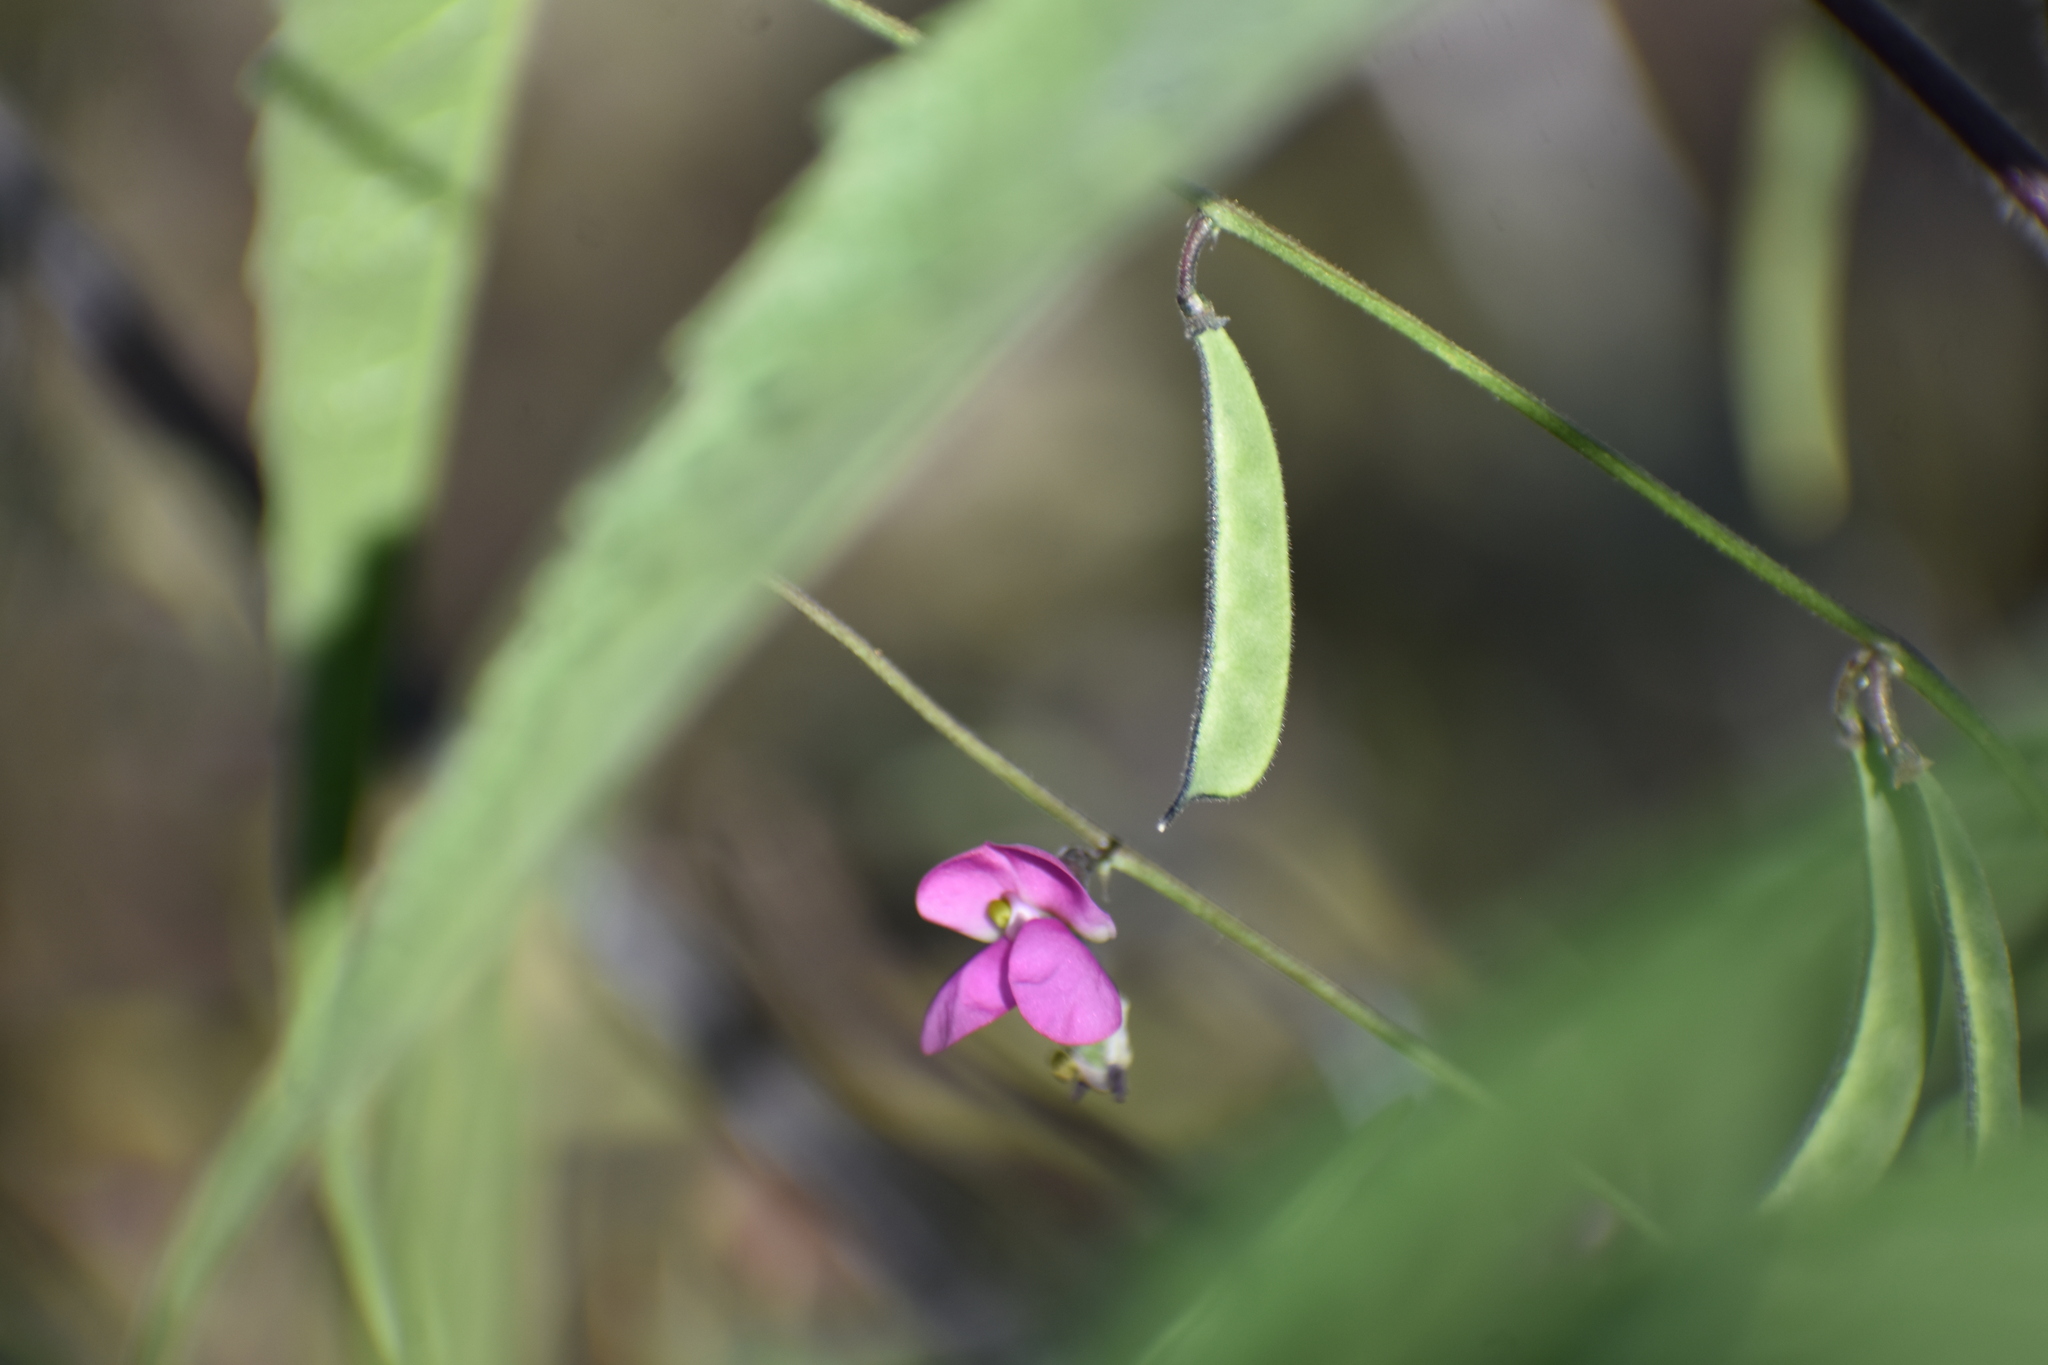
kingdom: Plantae
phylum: Tracheophyta
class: Magnoliopsida
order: Fabales
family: Fabaceae
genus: Phaseolus
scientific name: Phaseolus filiformis
